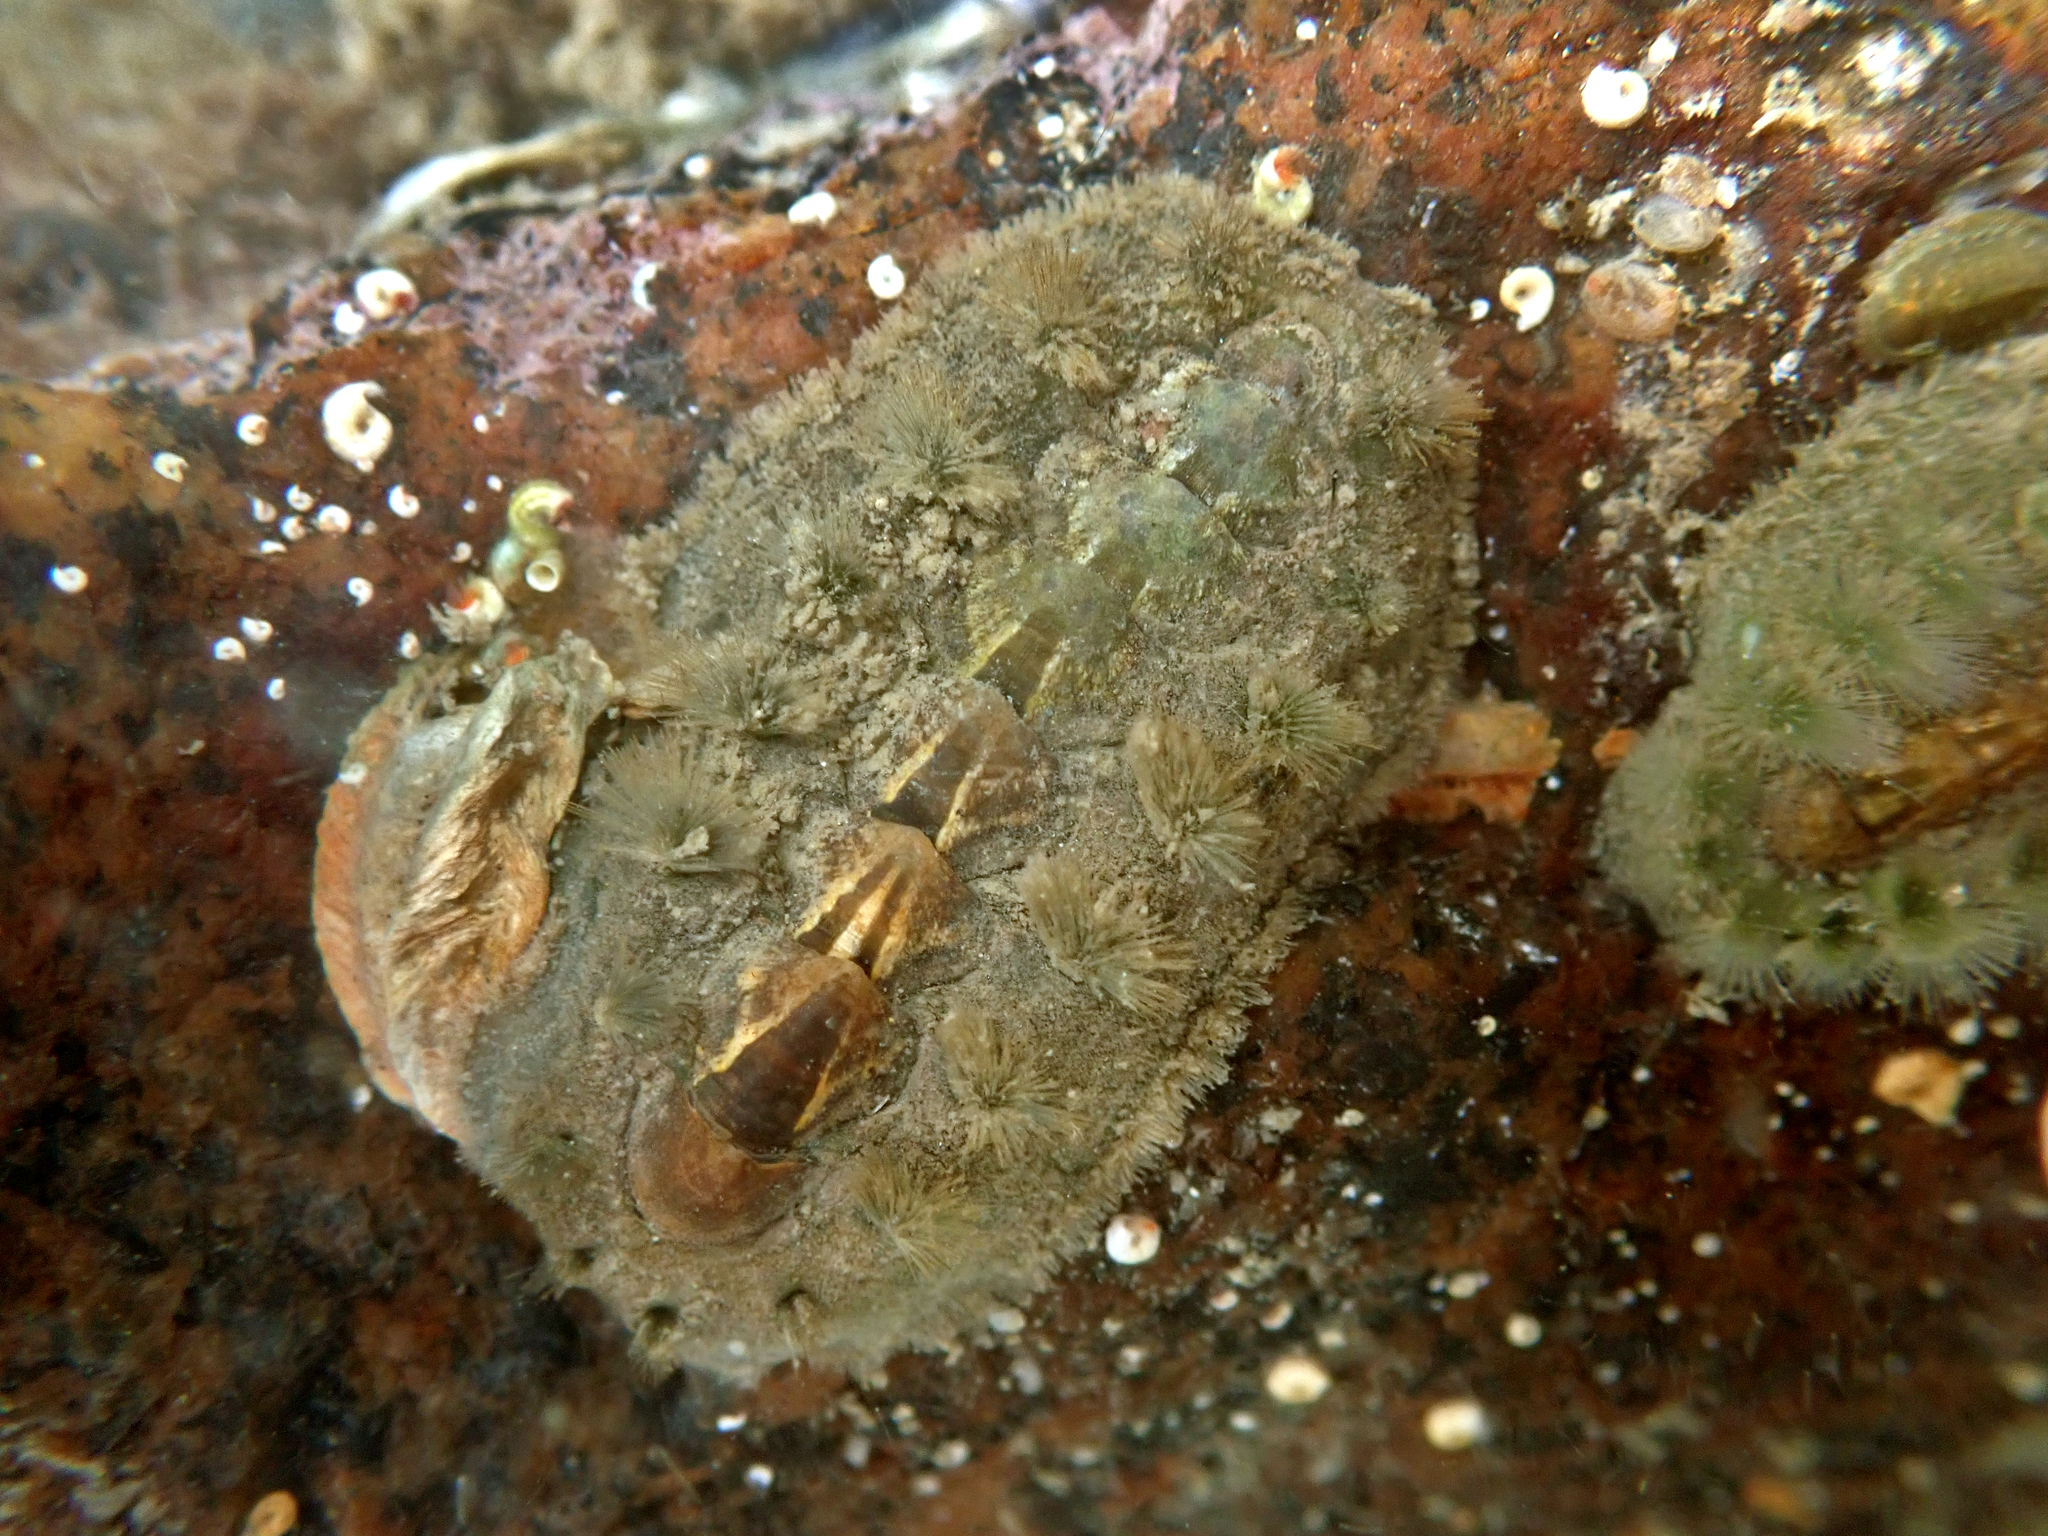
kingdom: Animalia
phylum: Mollusca
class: Polyplacophora
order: Chitonida
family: Acanthochitonidae
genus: Acanthochitona
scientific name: Acanthochitona zelandica
